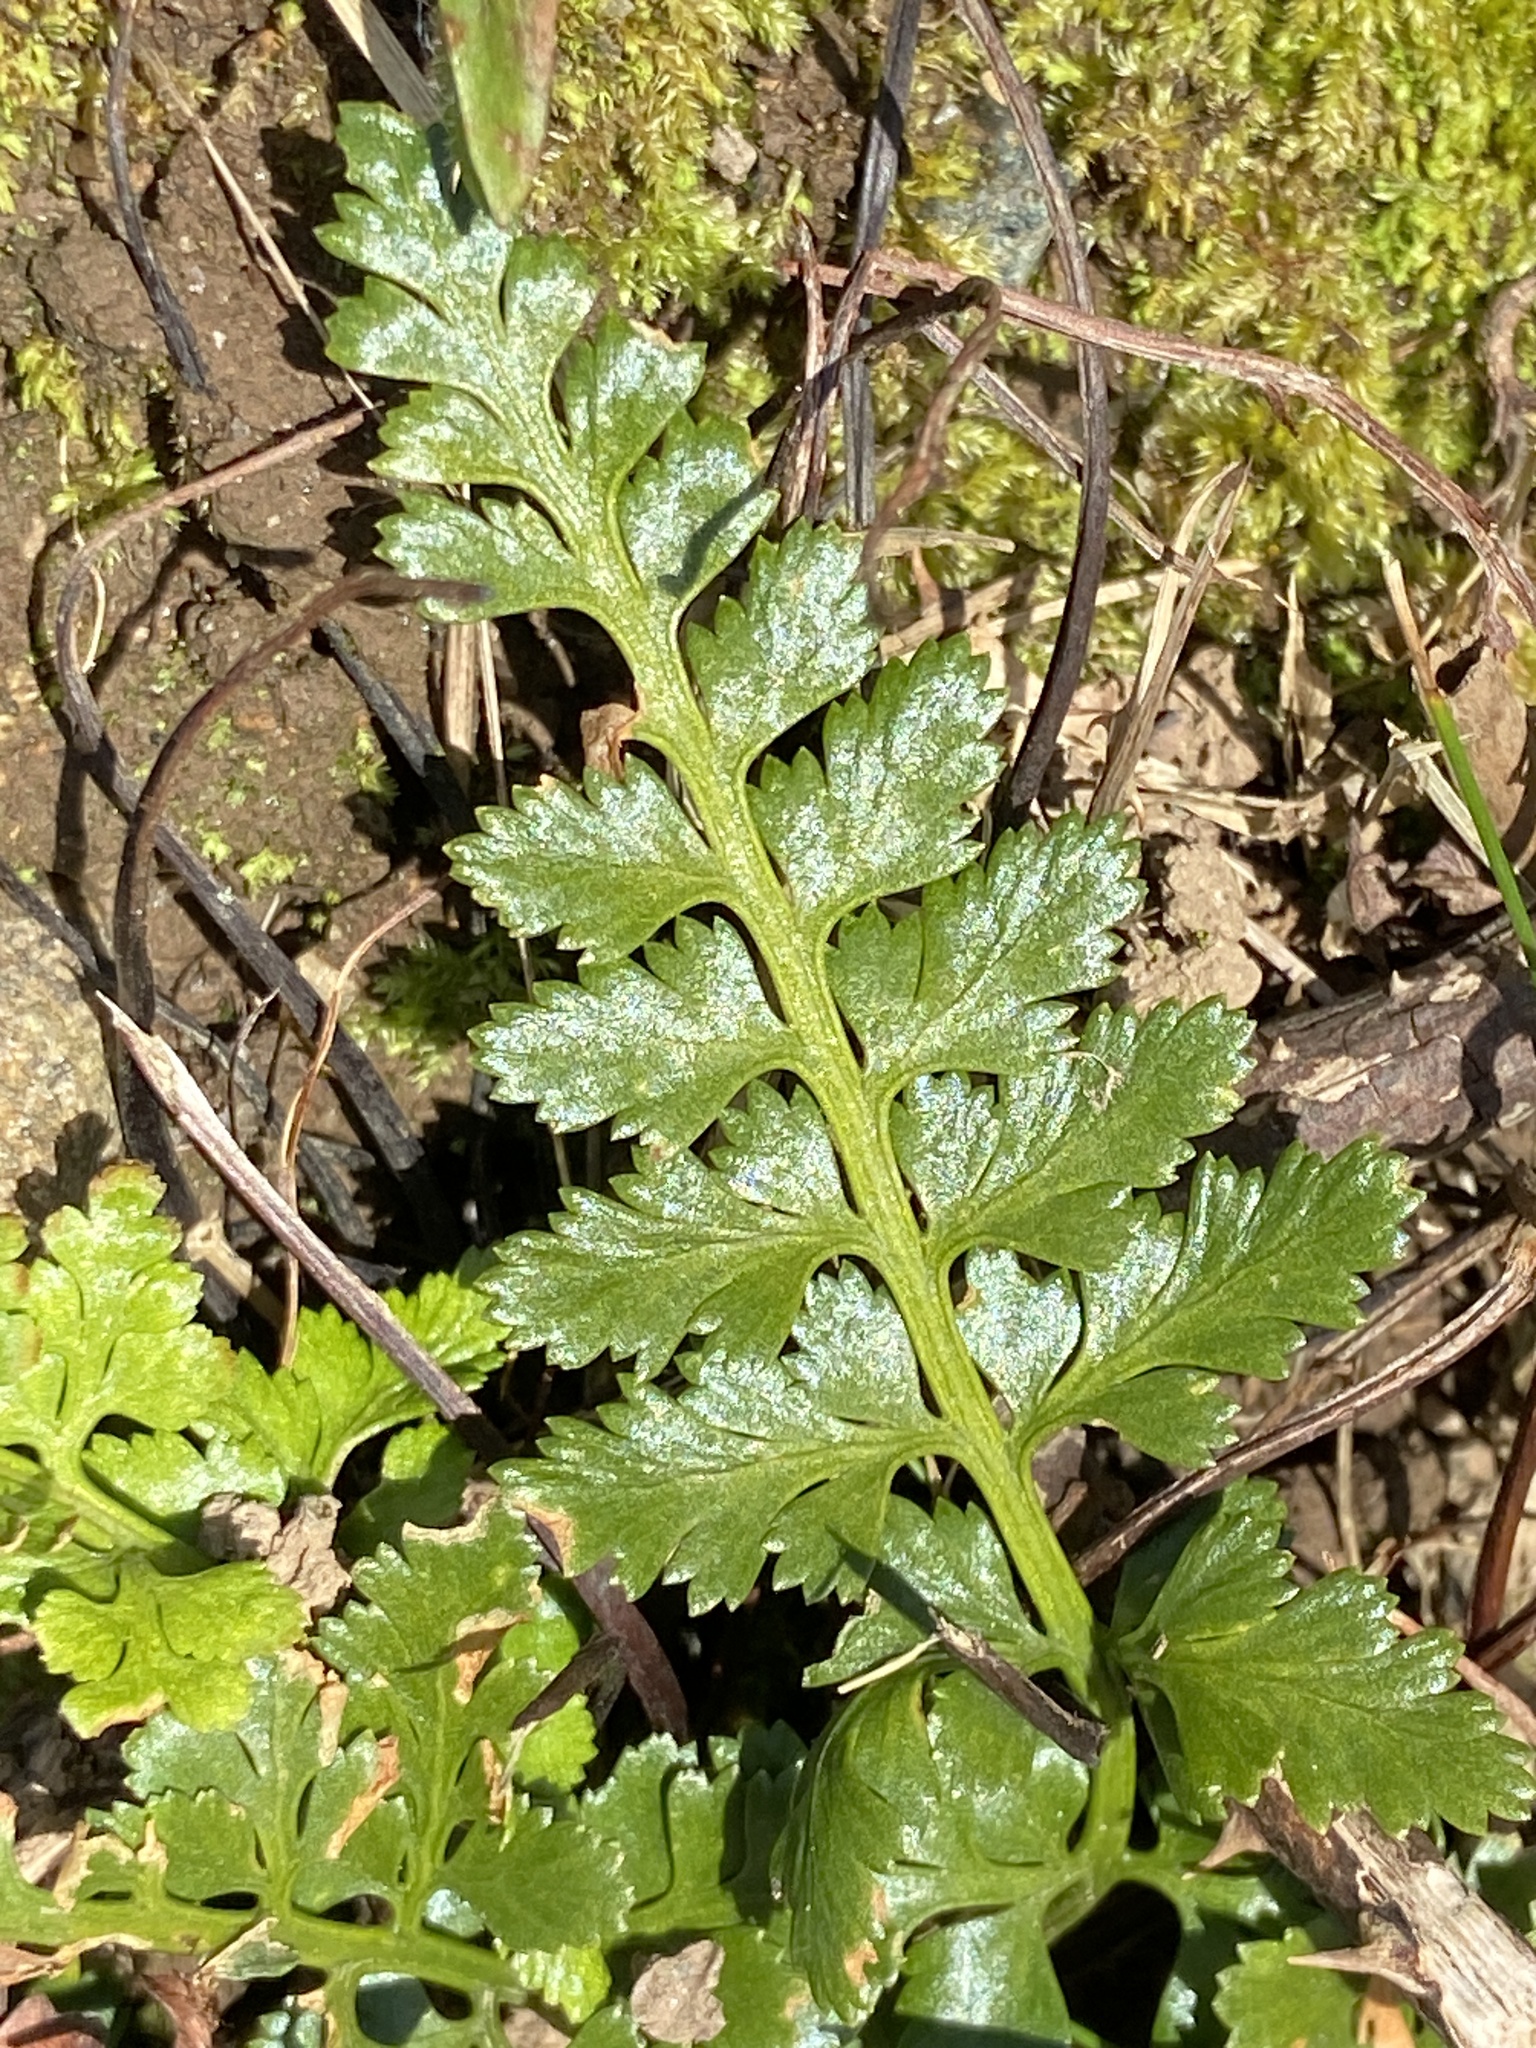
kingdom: Plantae
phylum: Tracheophyta
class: Polypodiopsida
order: Polypodiales
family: Aspleniaceae
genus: Asplenium
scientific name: Asplenium adiantum-nigrum
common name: Black spleenwort
